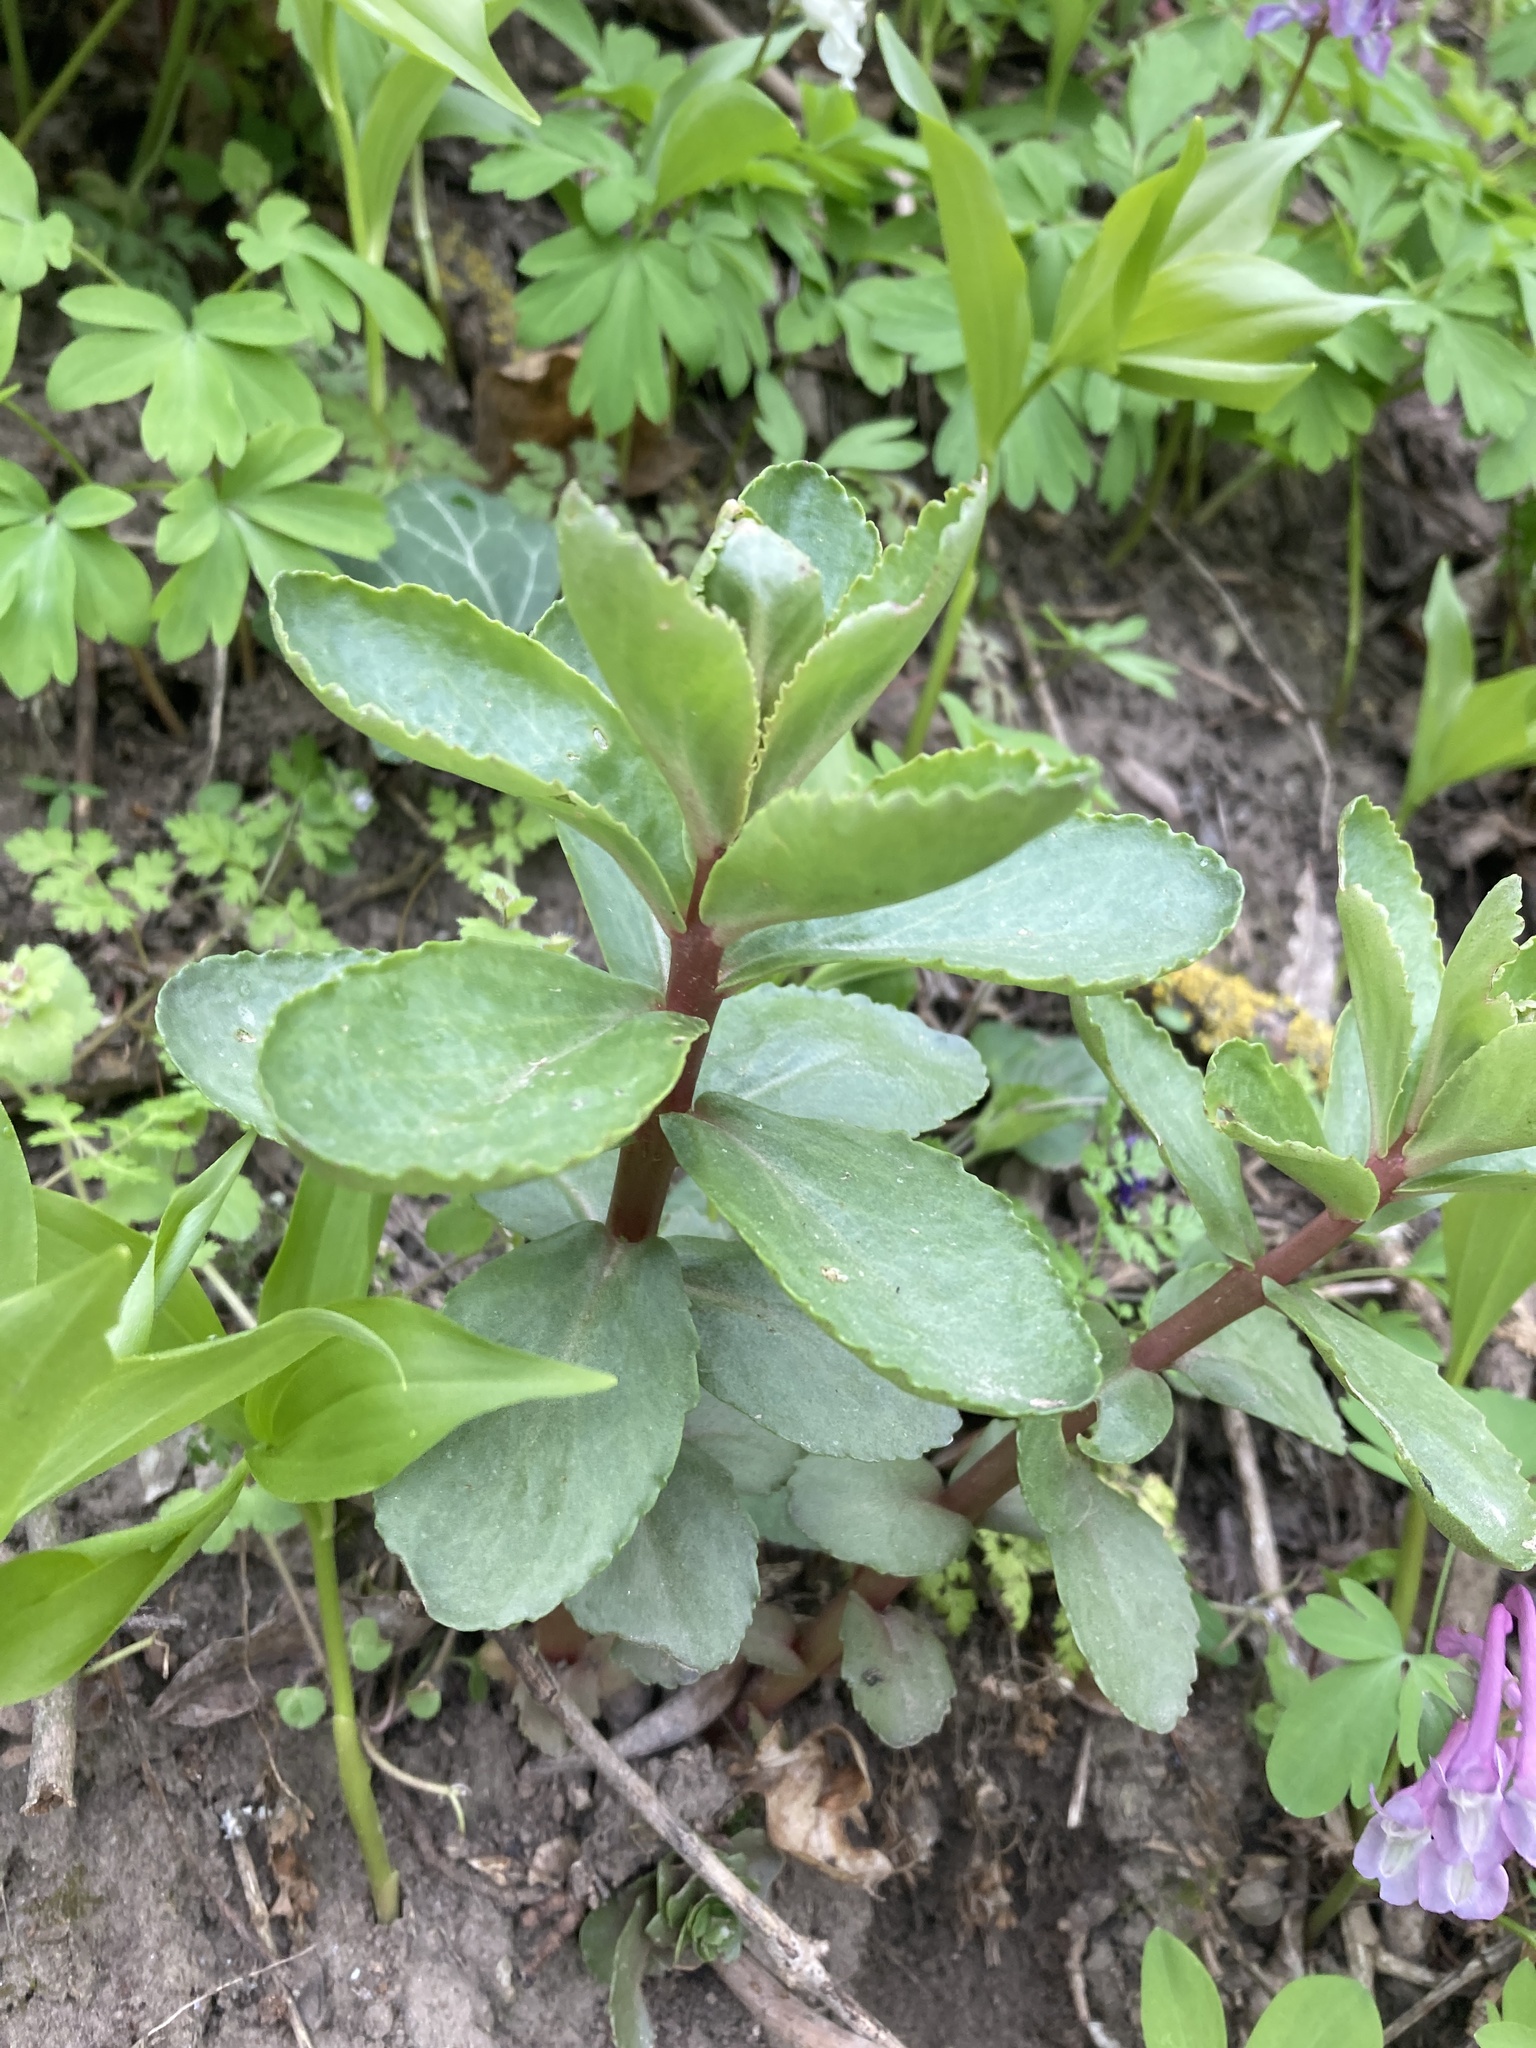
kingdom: Plantae
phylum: Tracheophyta
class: Magnoliopsida
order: Saxifragales
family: Crassulaceae
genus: Hylotelephium
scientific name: Hylotelephium maximum
